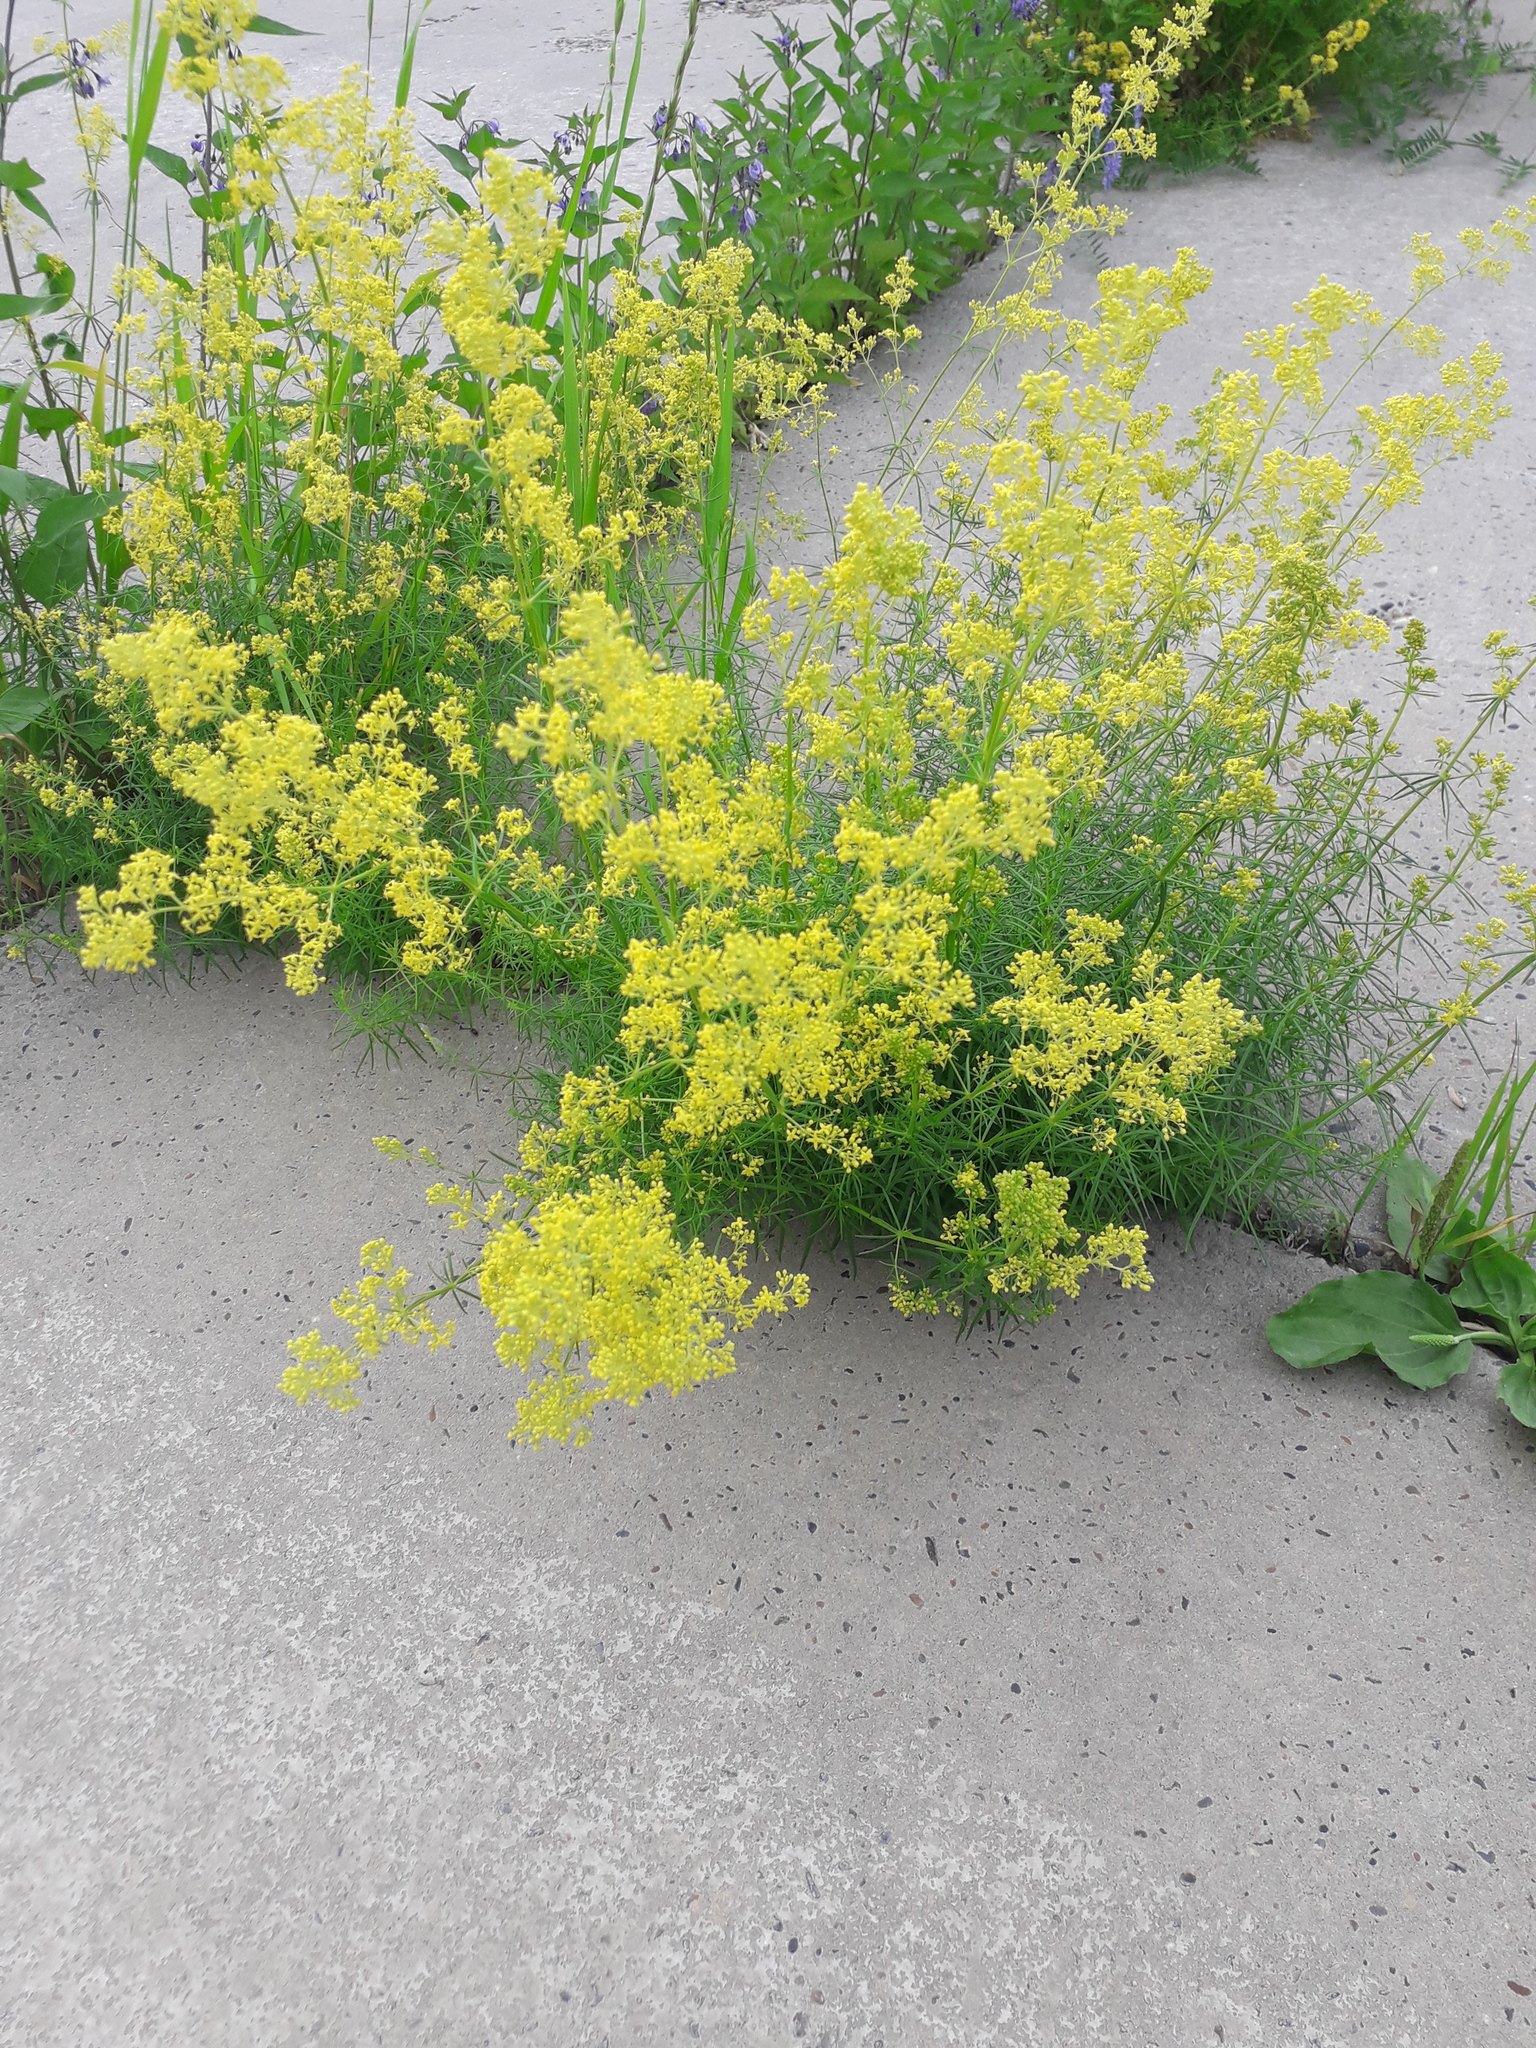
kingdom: Plantae
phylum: Tracheophyta
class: Magnoliopsida
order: Gentianales
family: Rubiaceae
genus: Galium
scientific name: Galium verum
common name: Lady's bedstraw
